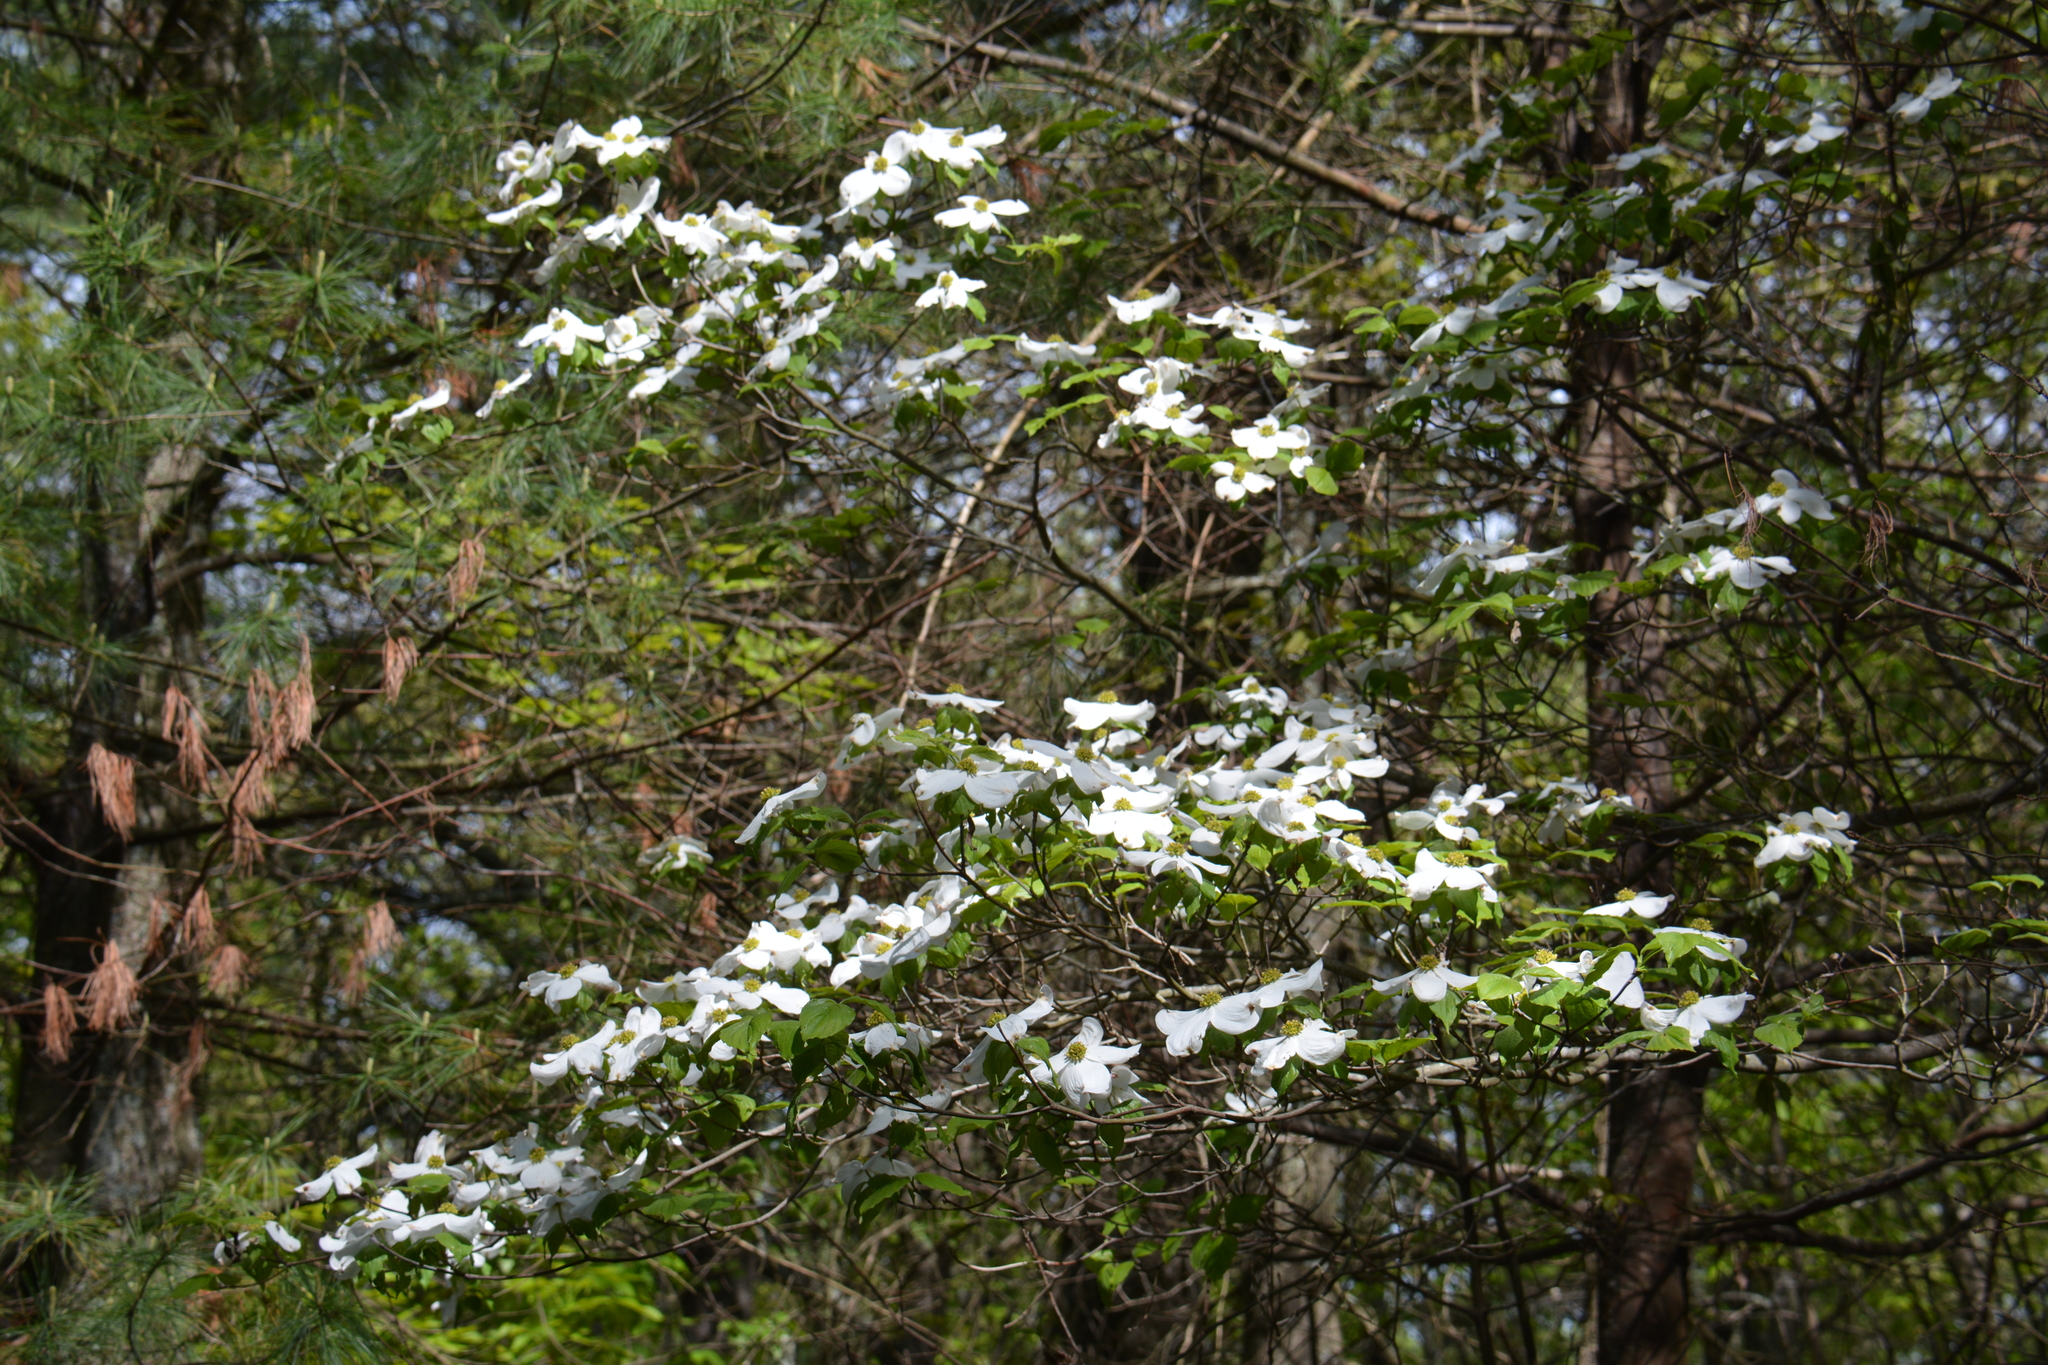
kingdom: Plantae
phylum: Tracheophyta
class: Magnoliopsida
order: Cornales
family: Cornaceae
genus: Cornus
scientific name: Cornus florida
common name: Flowering dogwood
